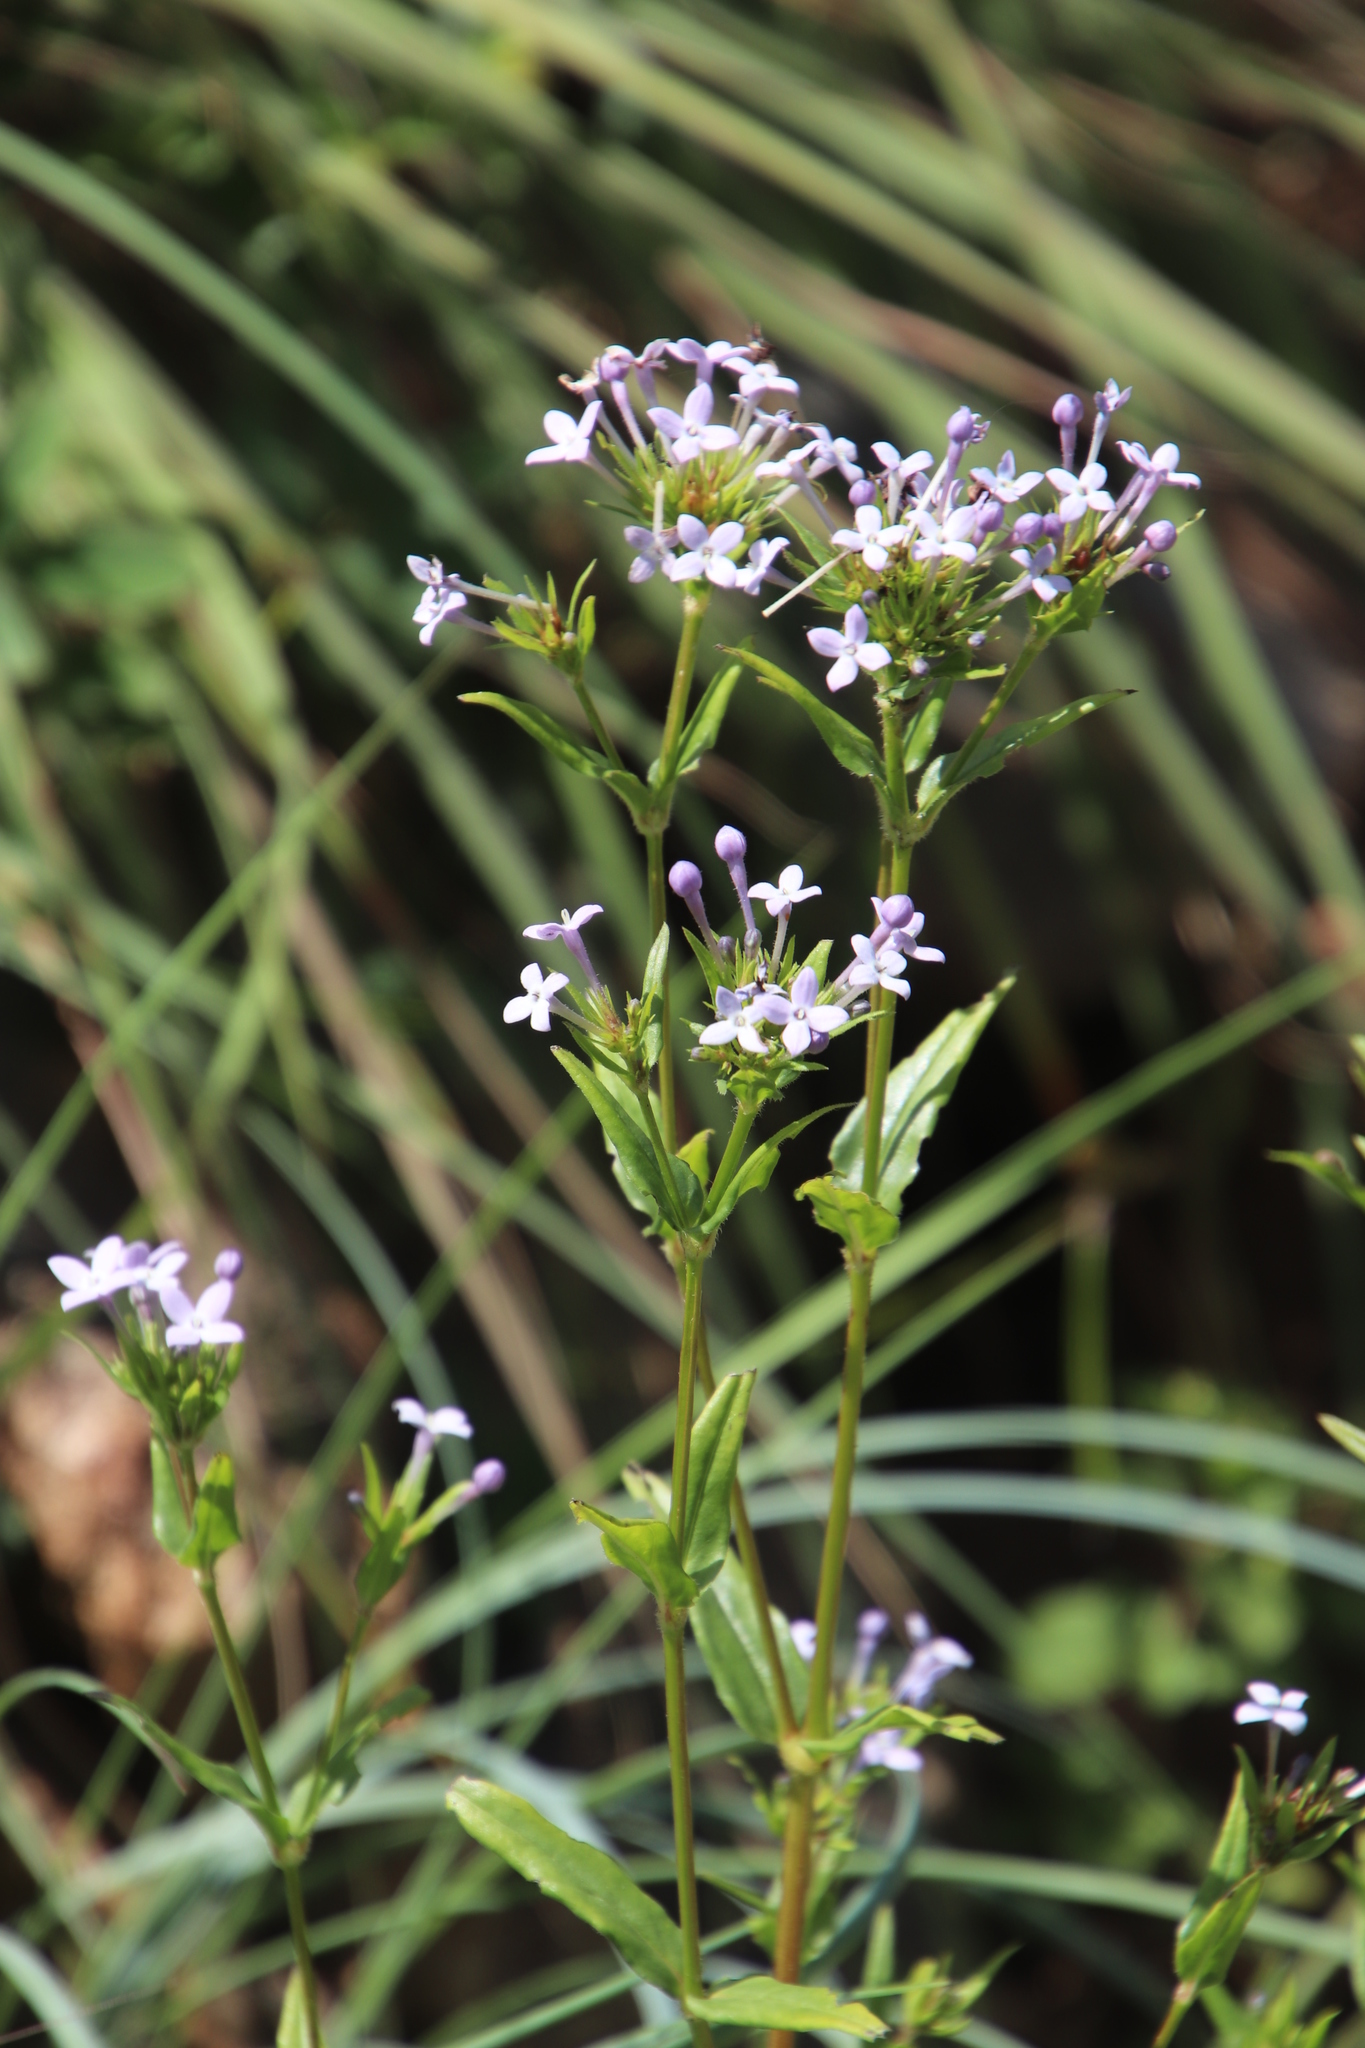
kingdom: Plantae
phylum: Tracheophyta
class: Magnoliopsida
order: Gentianales
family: Rubiaceae
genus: Conostomium
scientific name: Conostomium natalense
